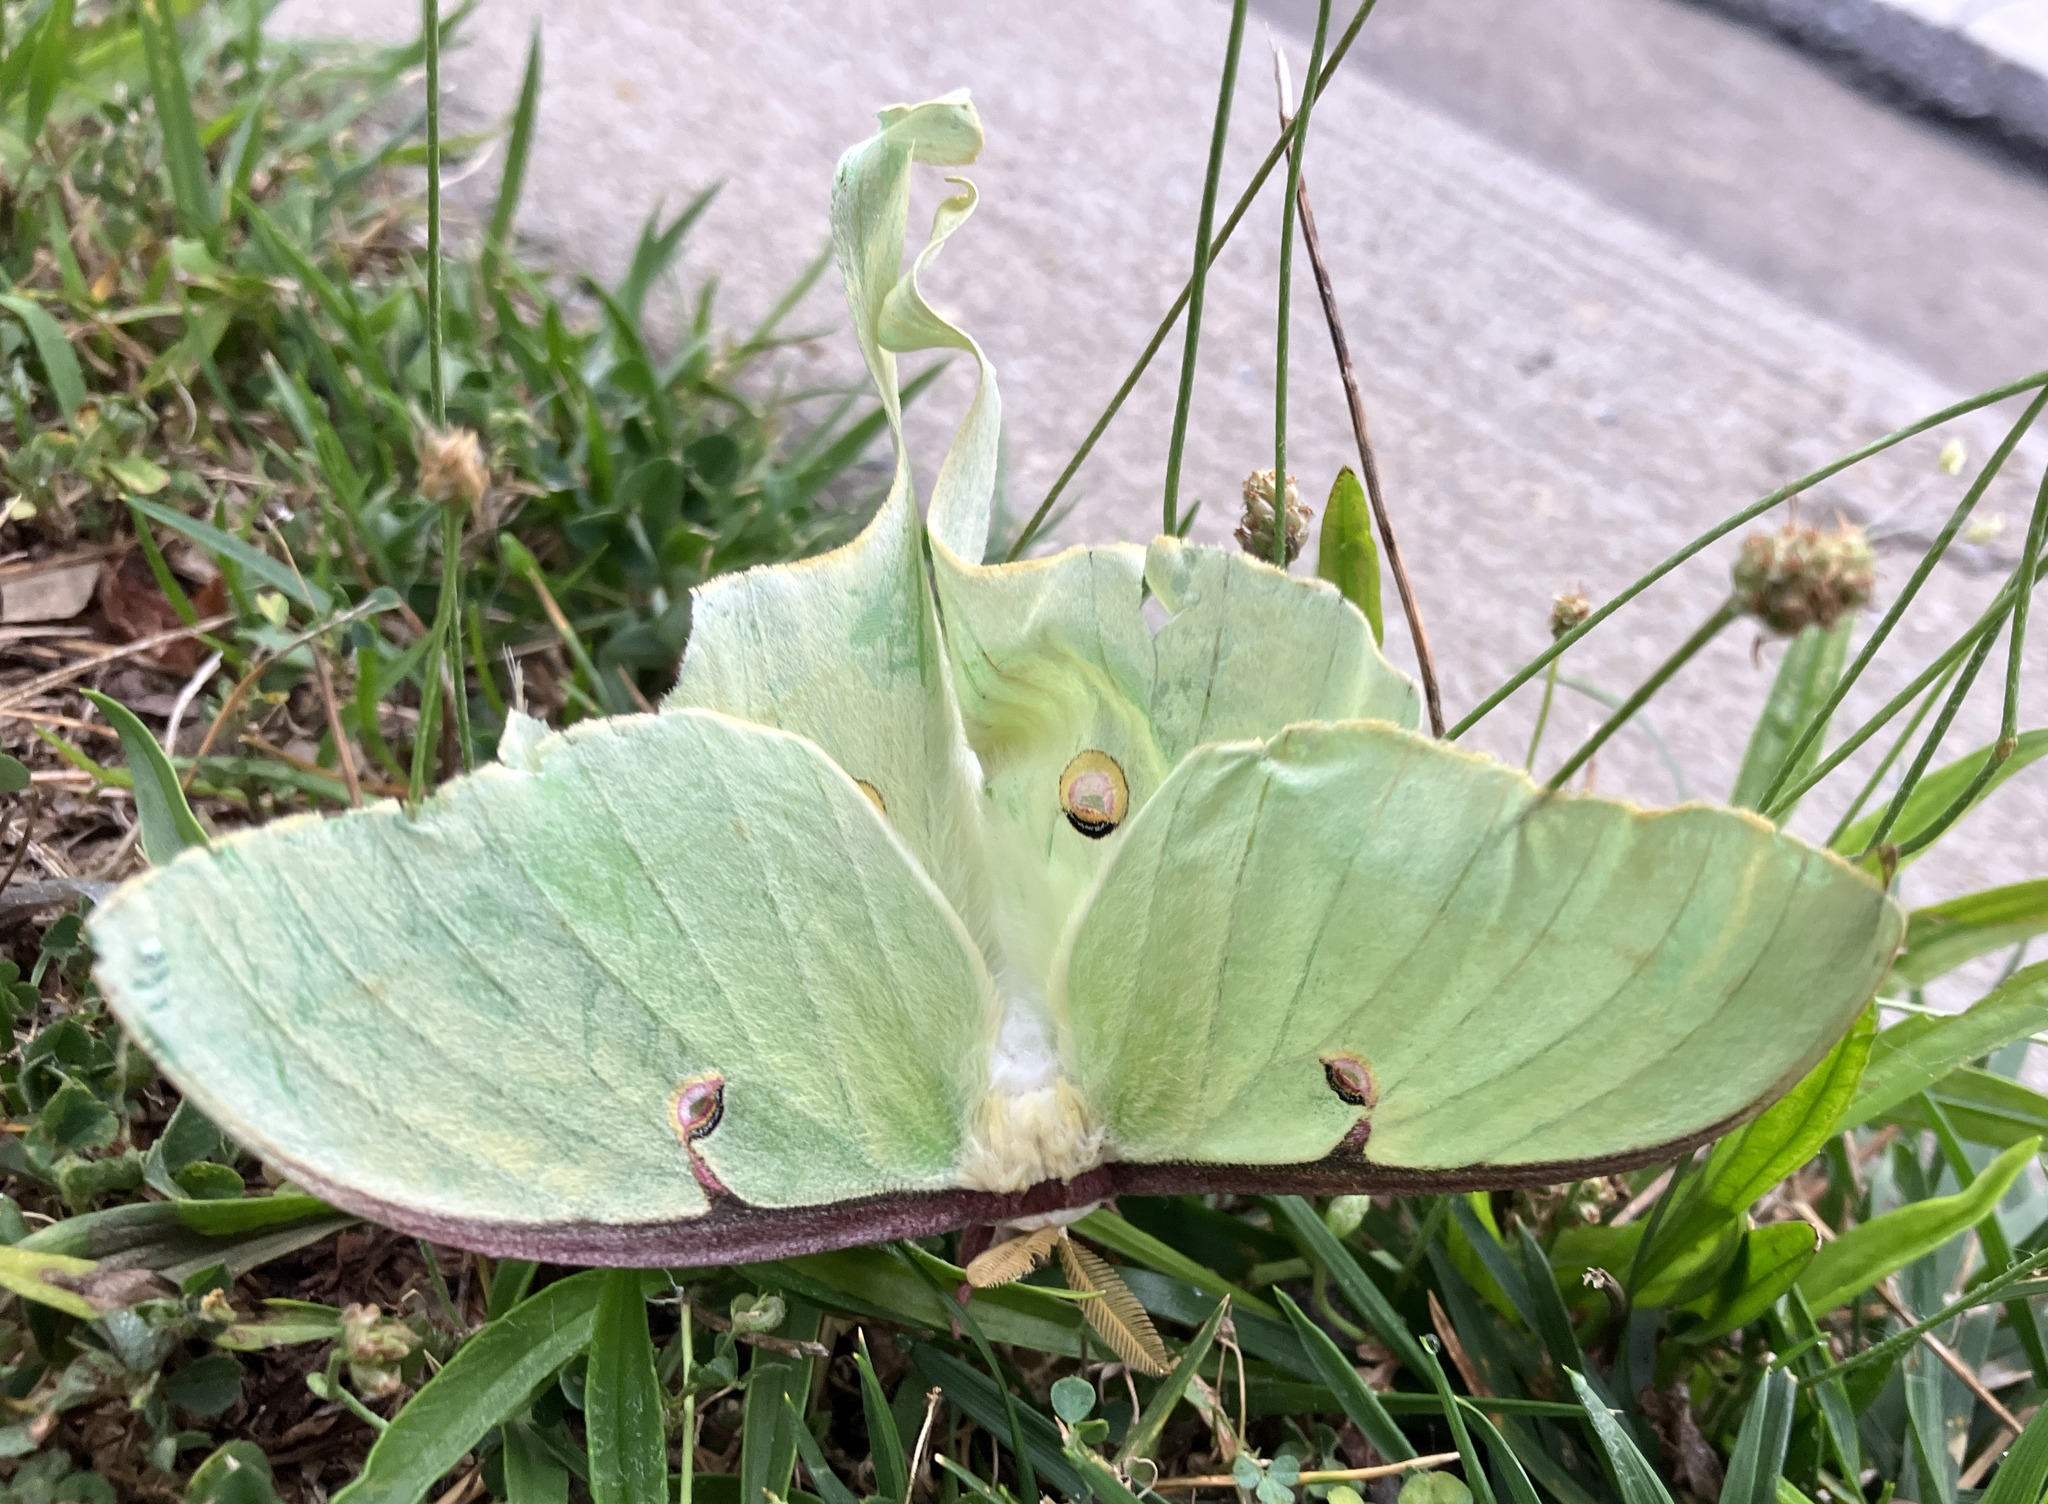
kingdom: Animalia
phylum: Arthropoda
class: Insecta
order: Lepidoptera
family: Saturniidae
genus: Actias
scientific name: Actias luna
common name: Luna moth
